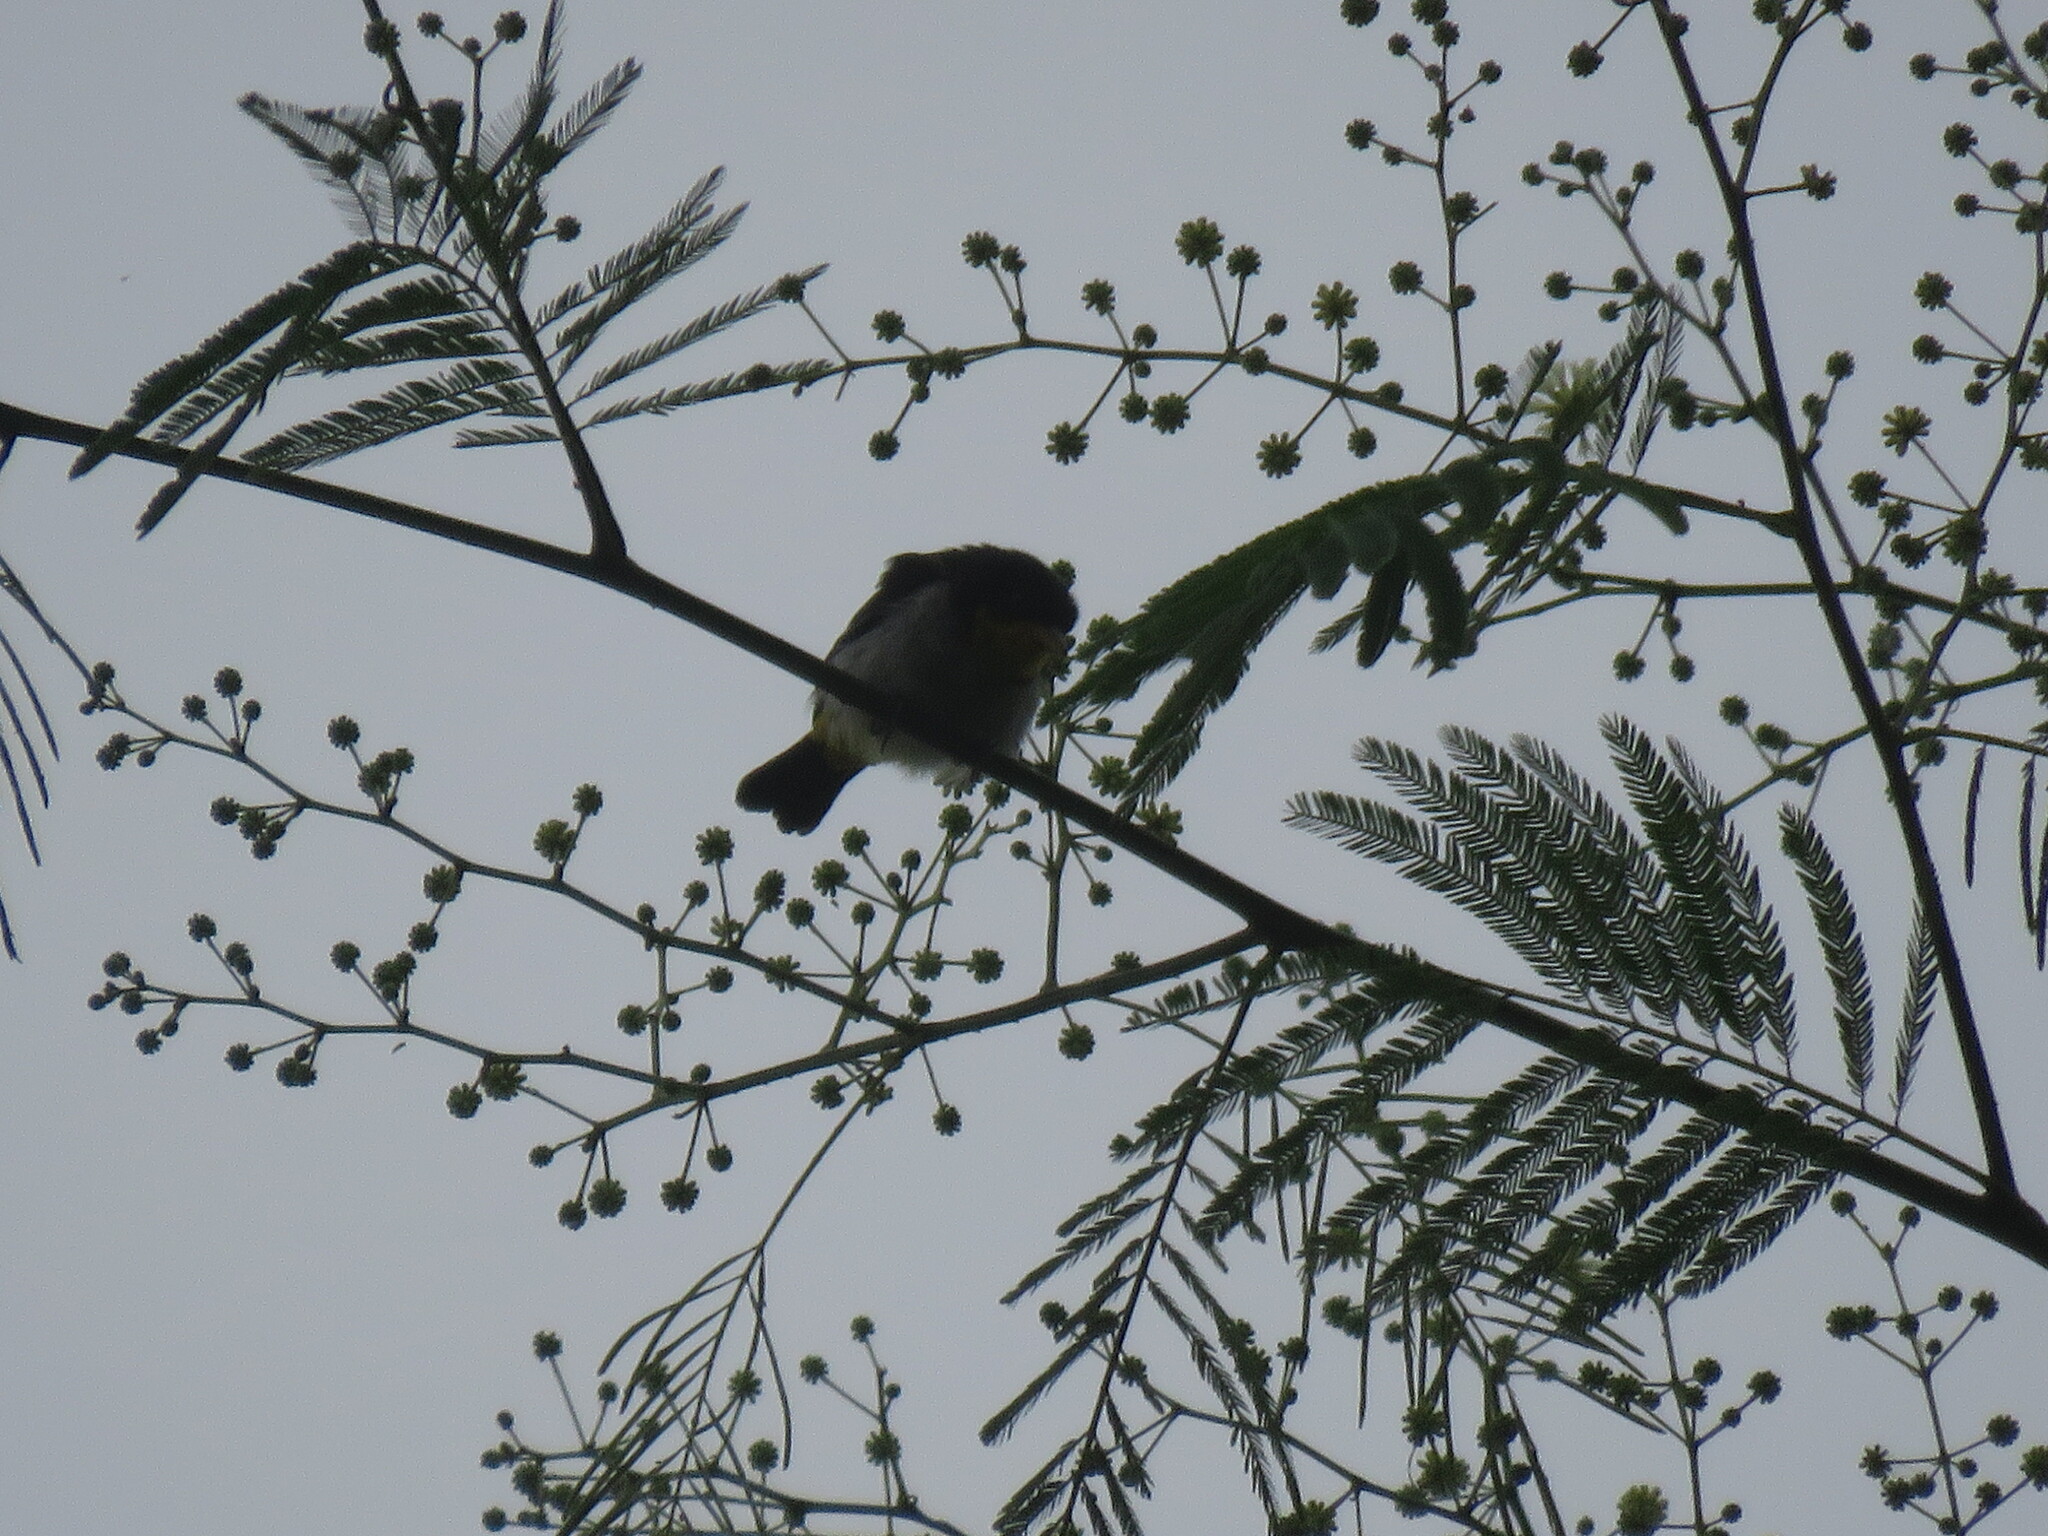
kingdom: Animalia
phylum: Chordata
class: Aves
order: Passeriformes
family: Thraupidae
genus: Hemithraupis
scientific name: Hemithraupis flavicollis
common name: Yellow-backed tanager
